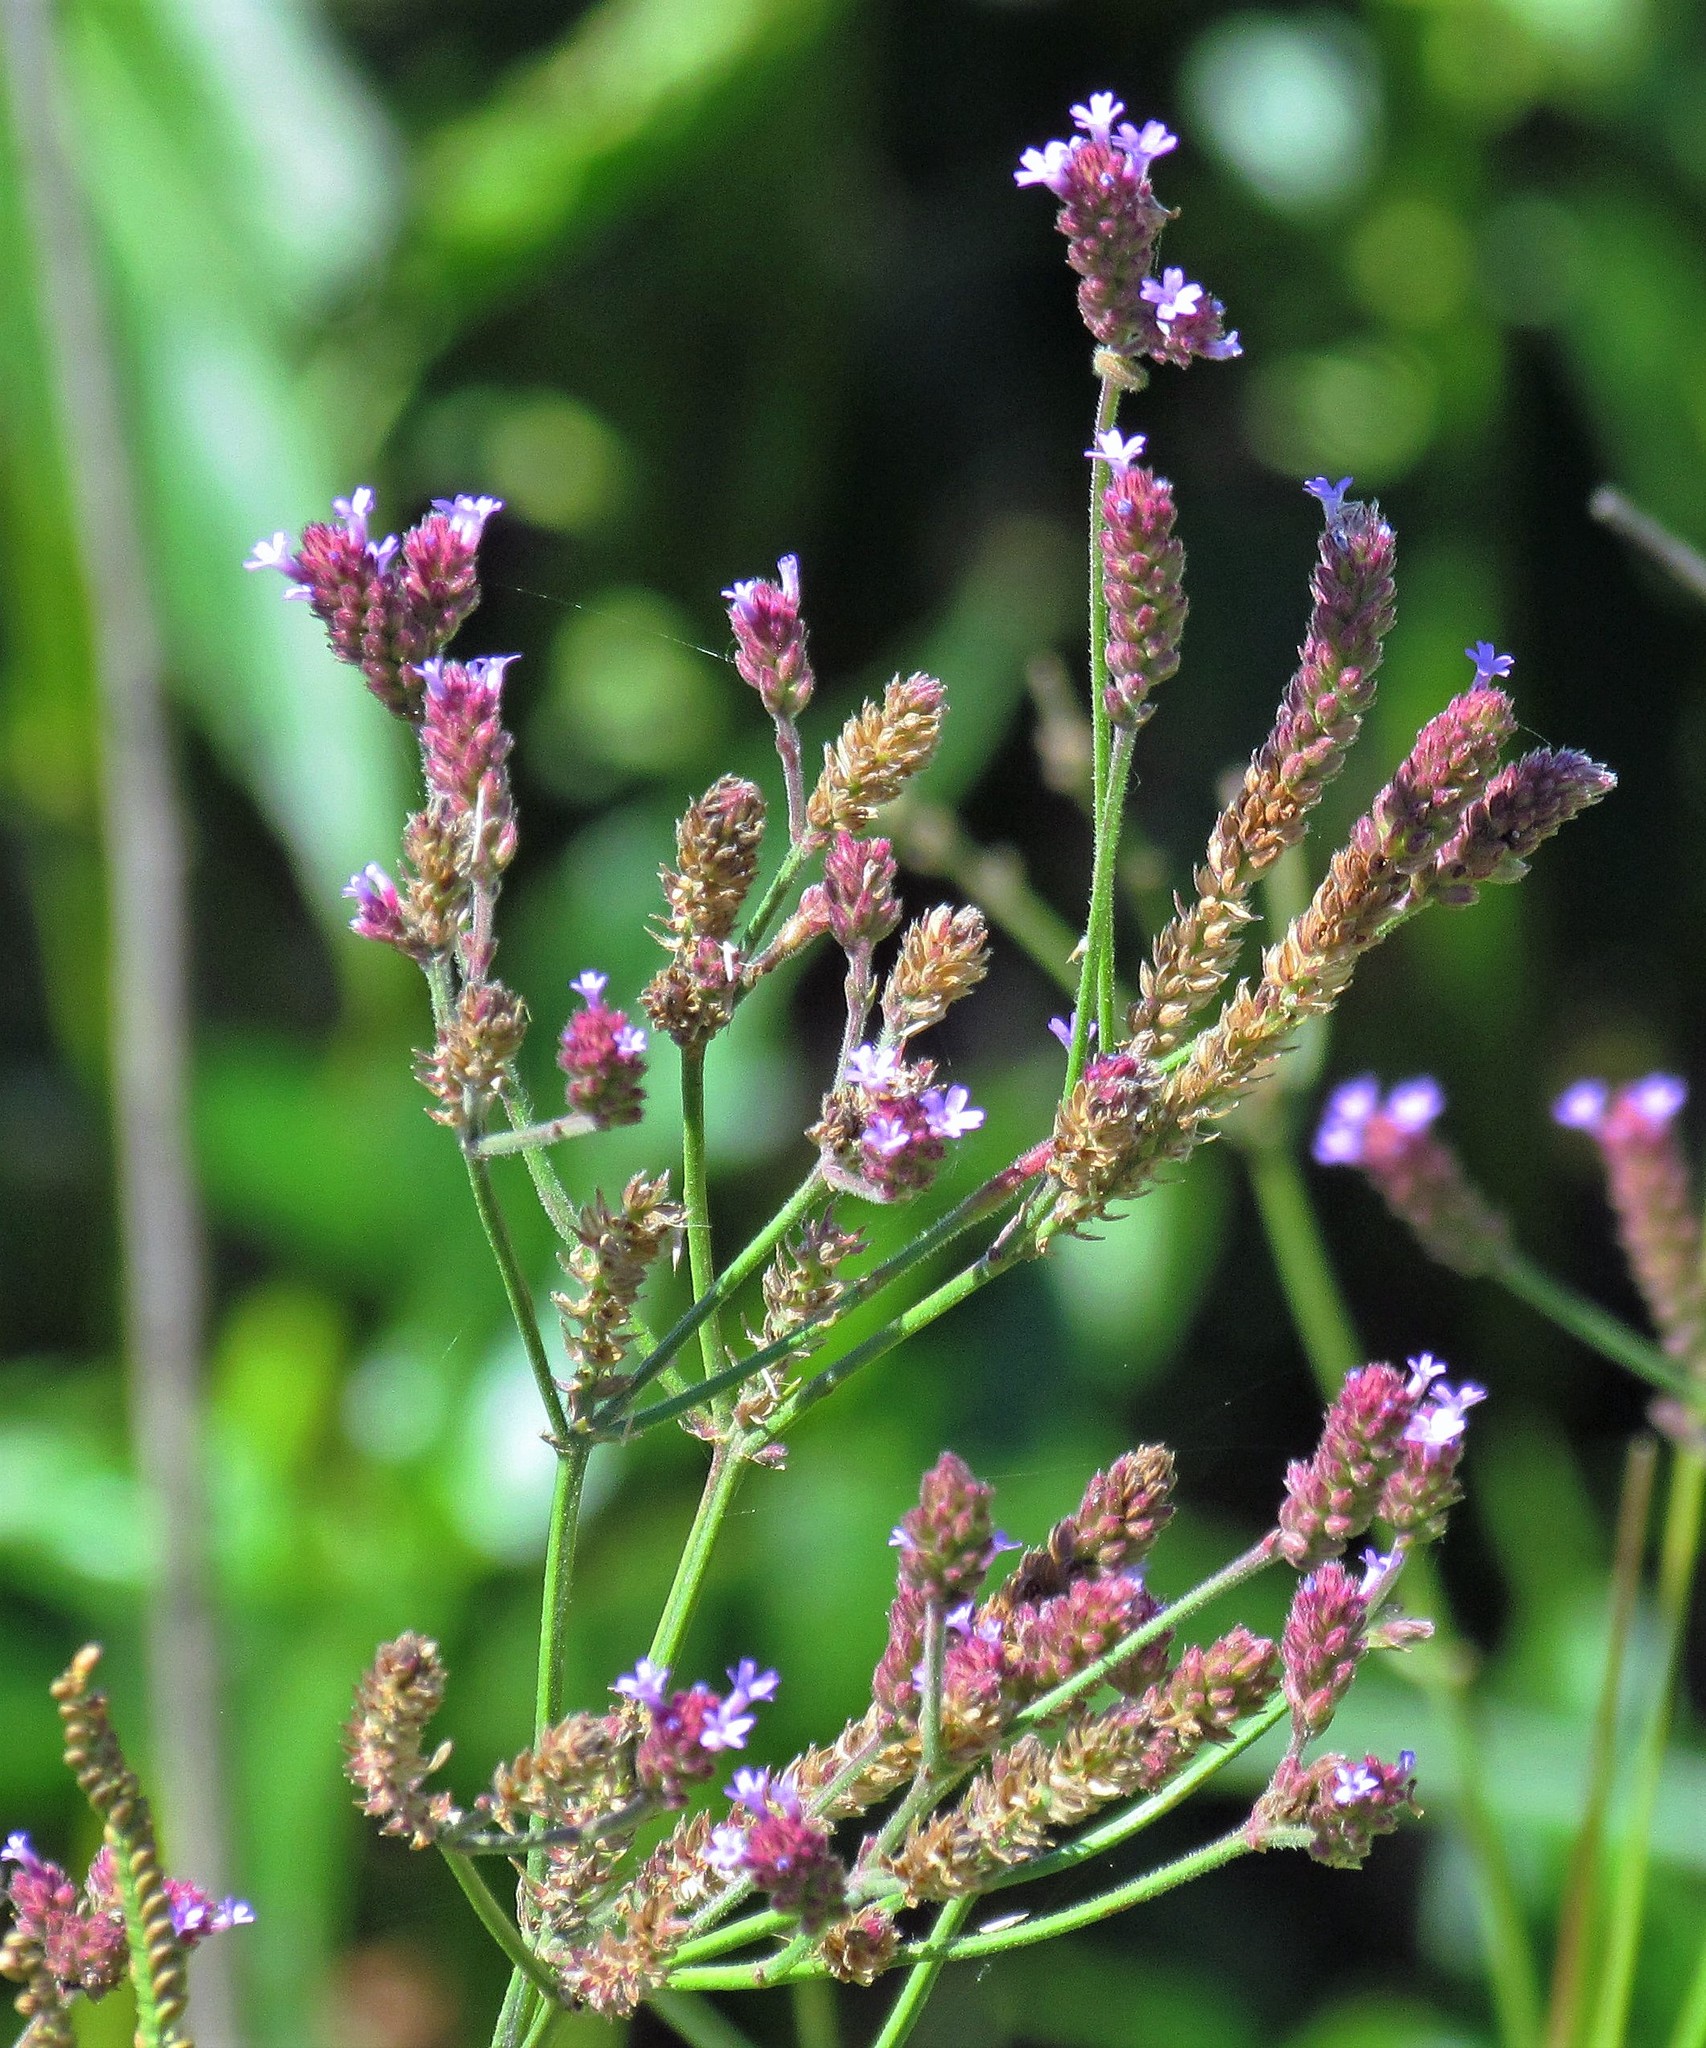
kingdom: Plantae
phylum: Tracheophyta
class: Magnoliopsida
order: Lamiales
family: Verbenaceae
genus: Verbena
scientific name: Verbena bonariensis
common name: Purpletop vervain
